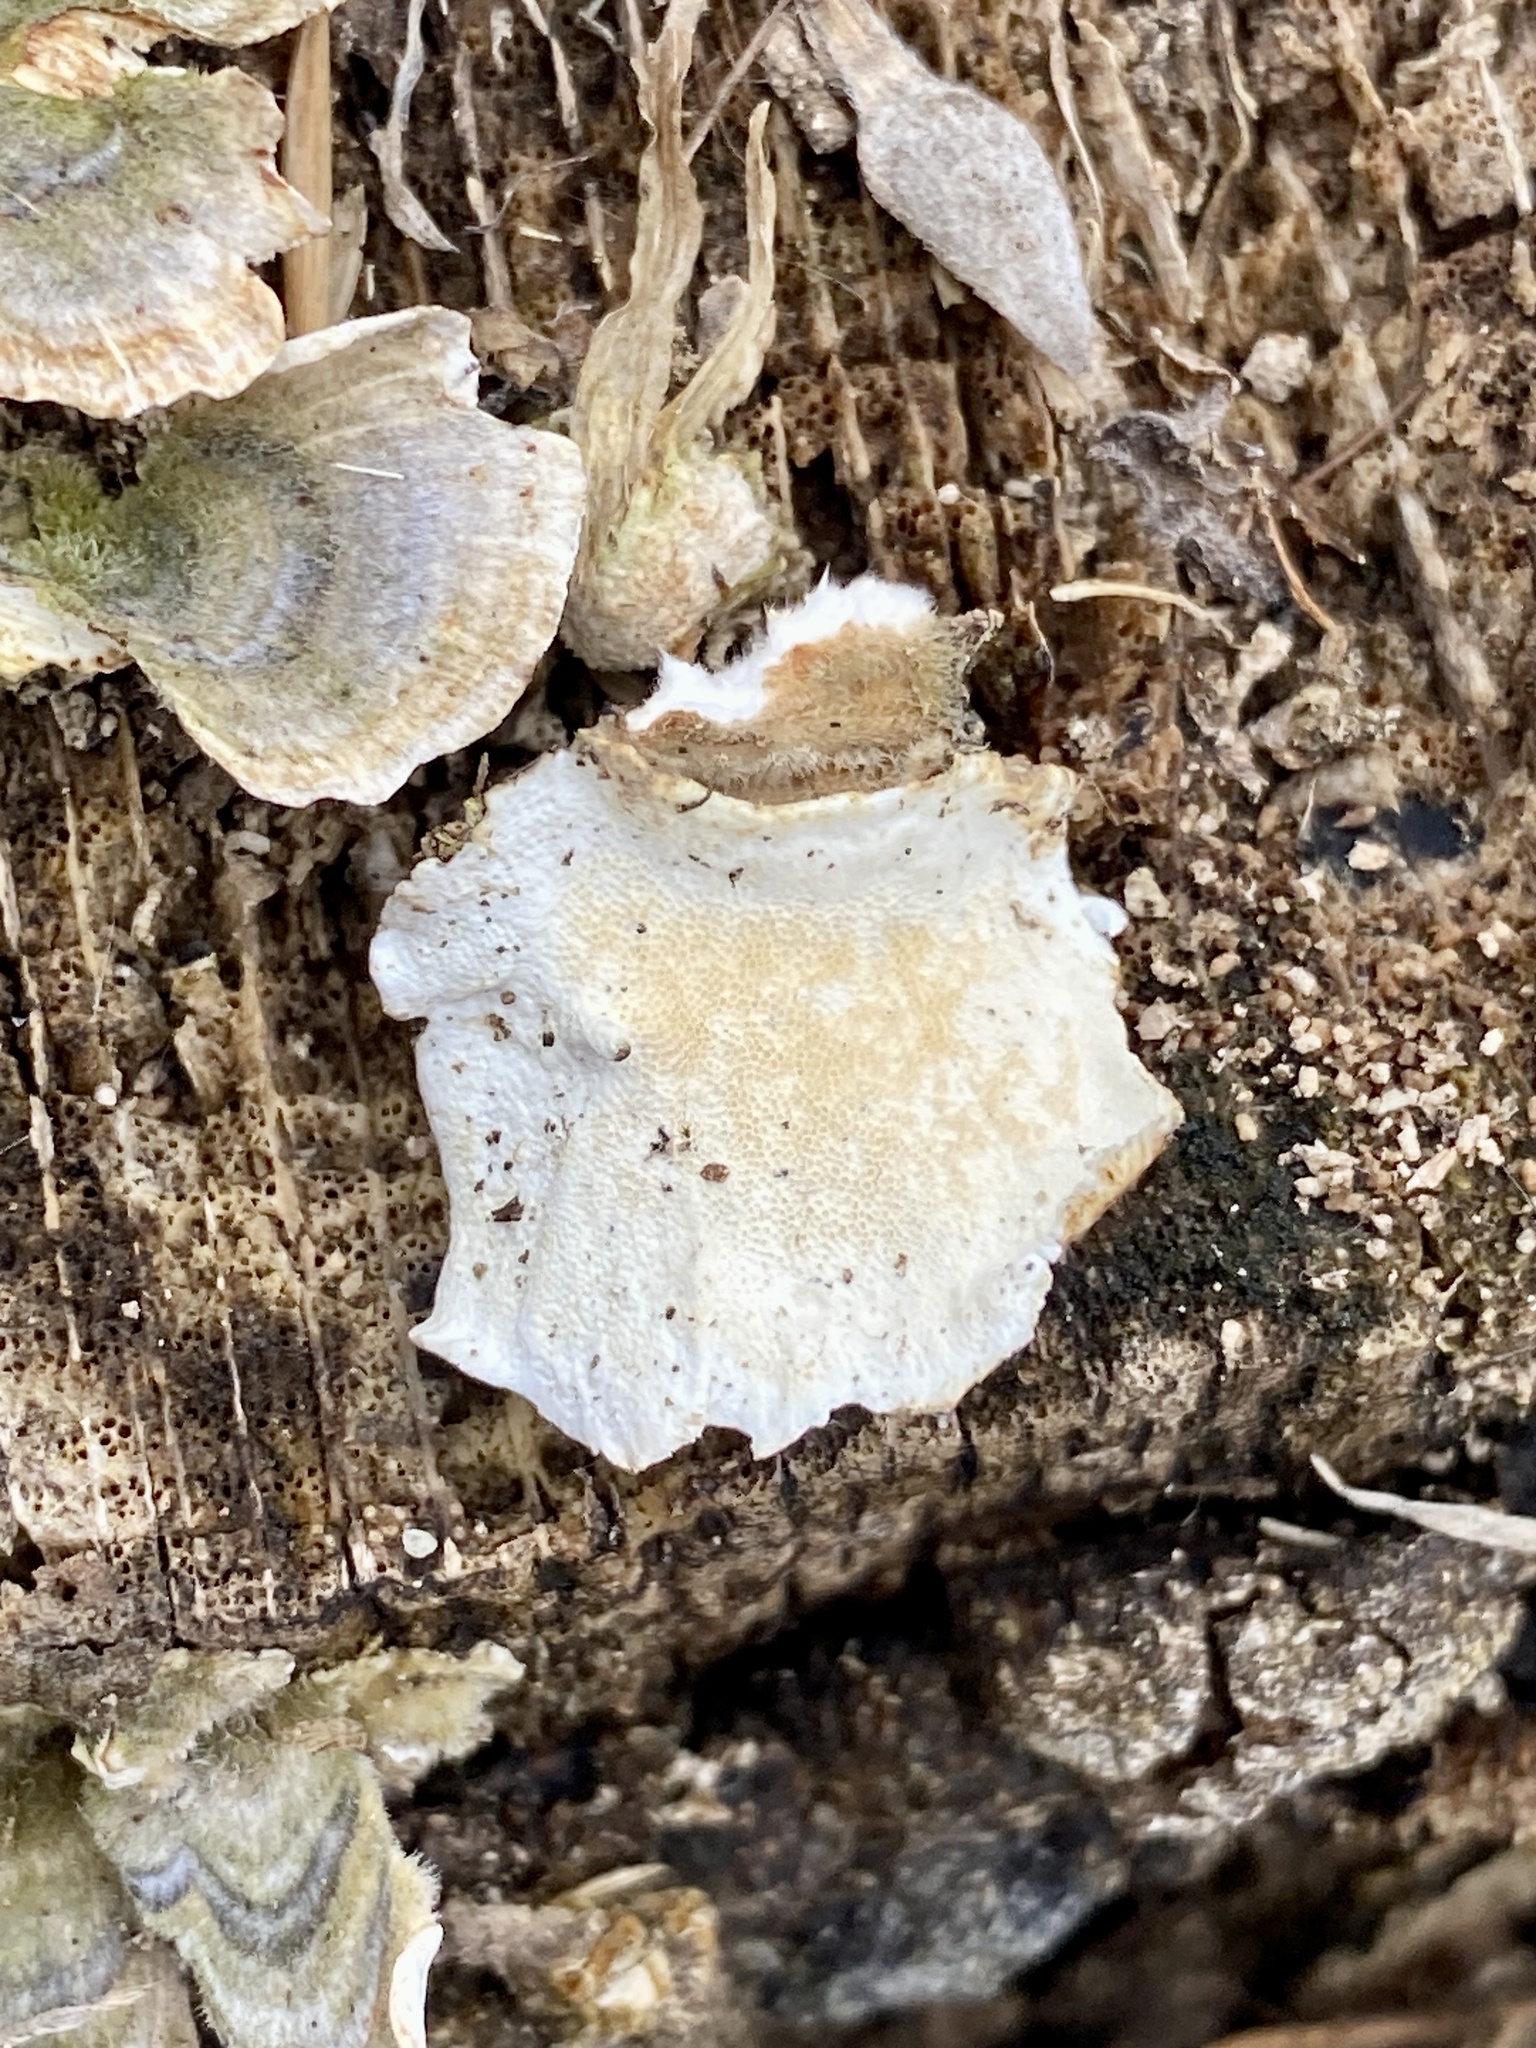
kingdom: Fungi
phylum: Basidiomycota
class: Agaricomycetes
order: Polyporales
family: Polyporaceae
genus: Trametes
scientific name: Trametes versicolor
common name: Turkeytail
